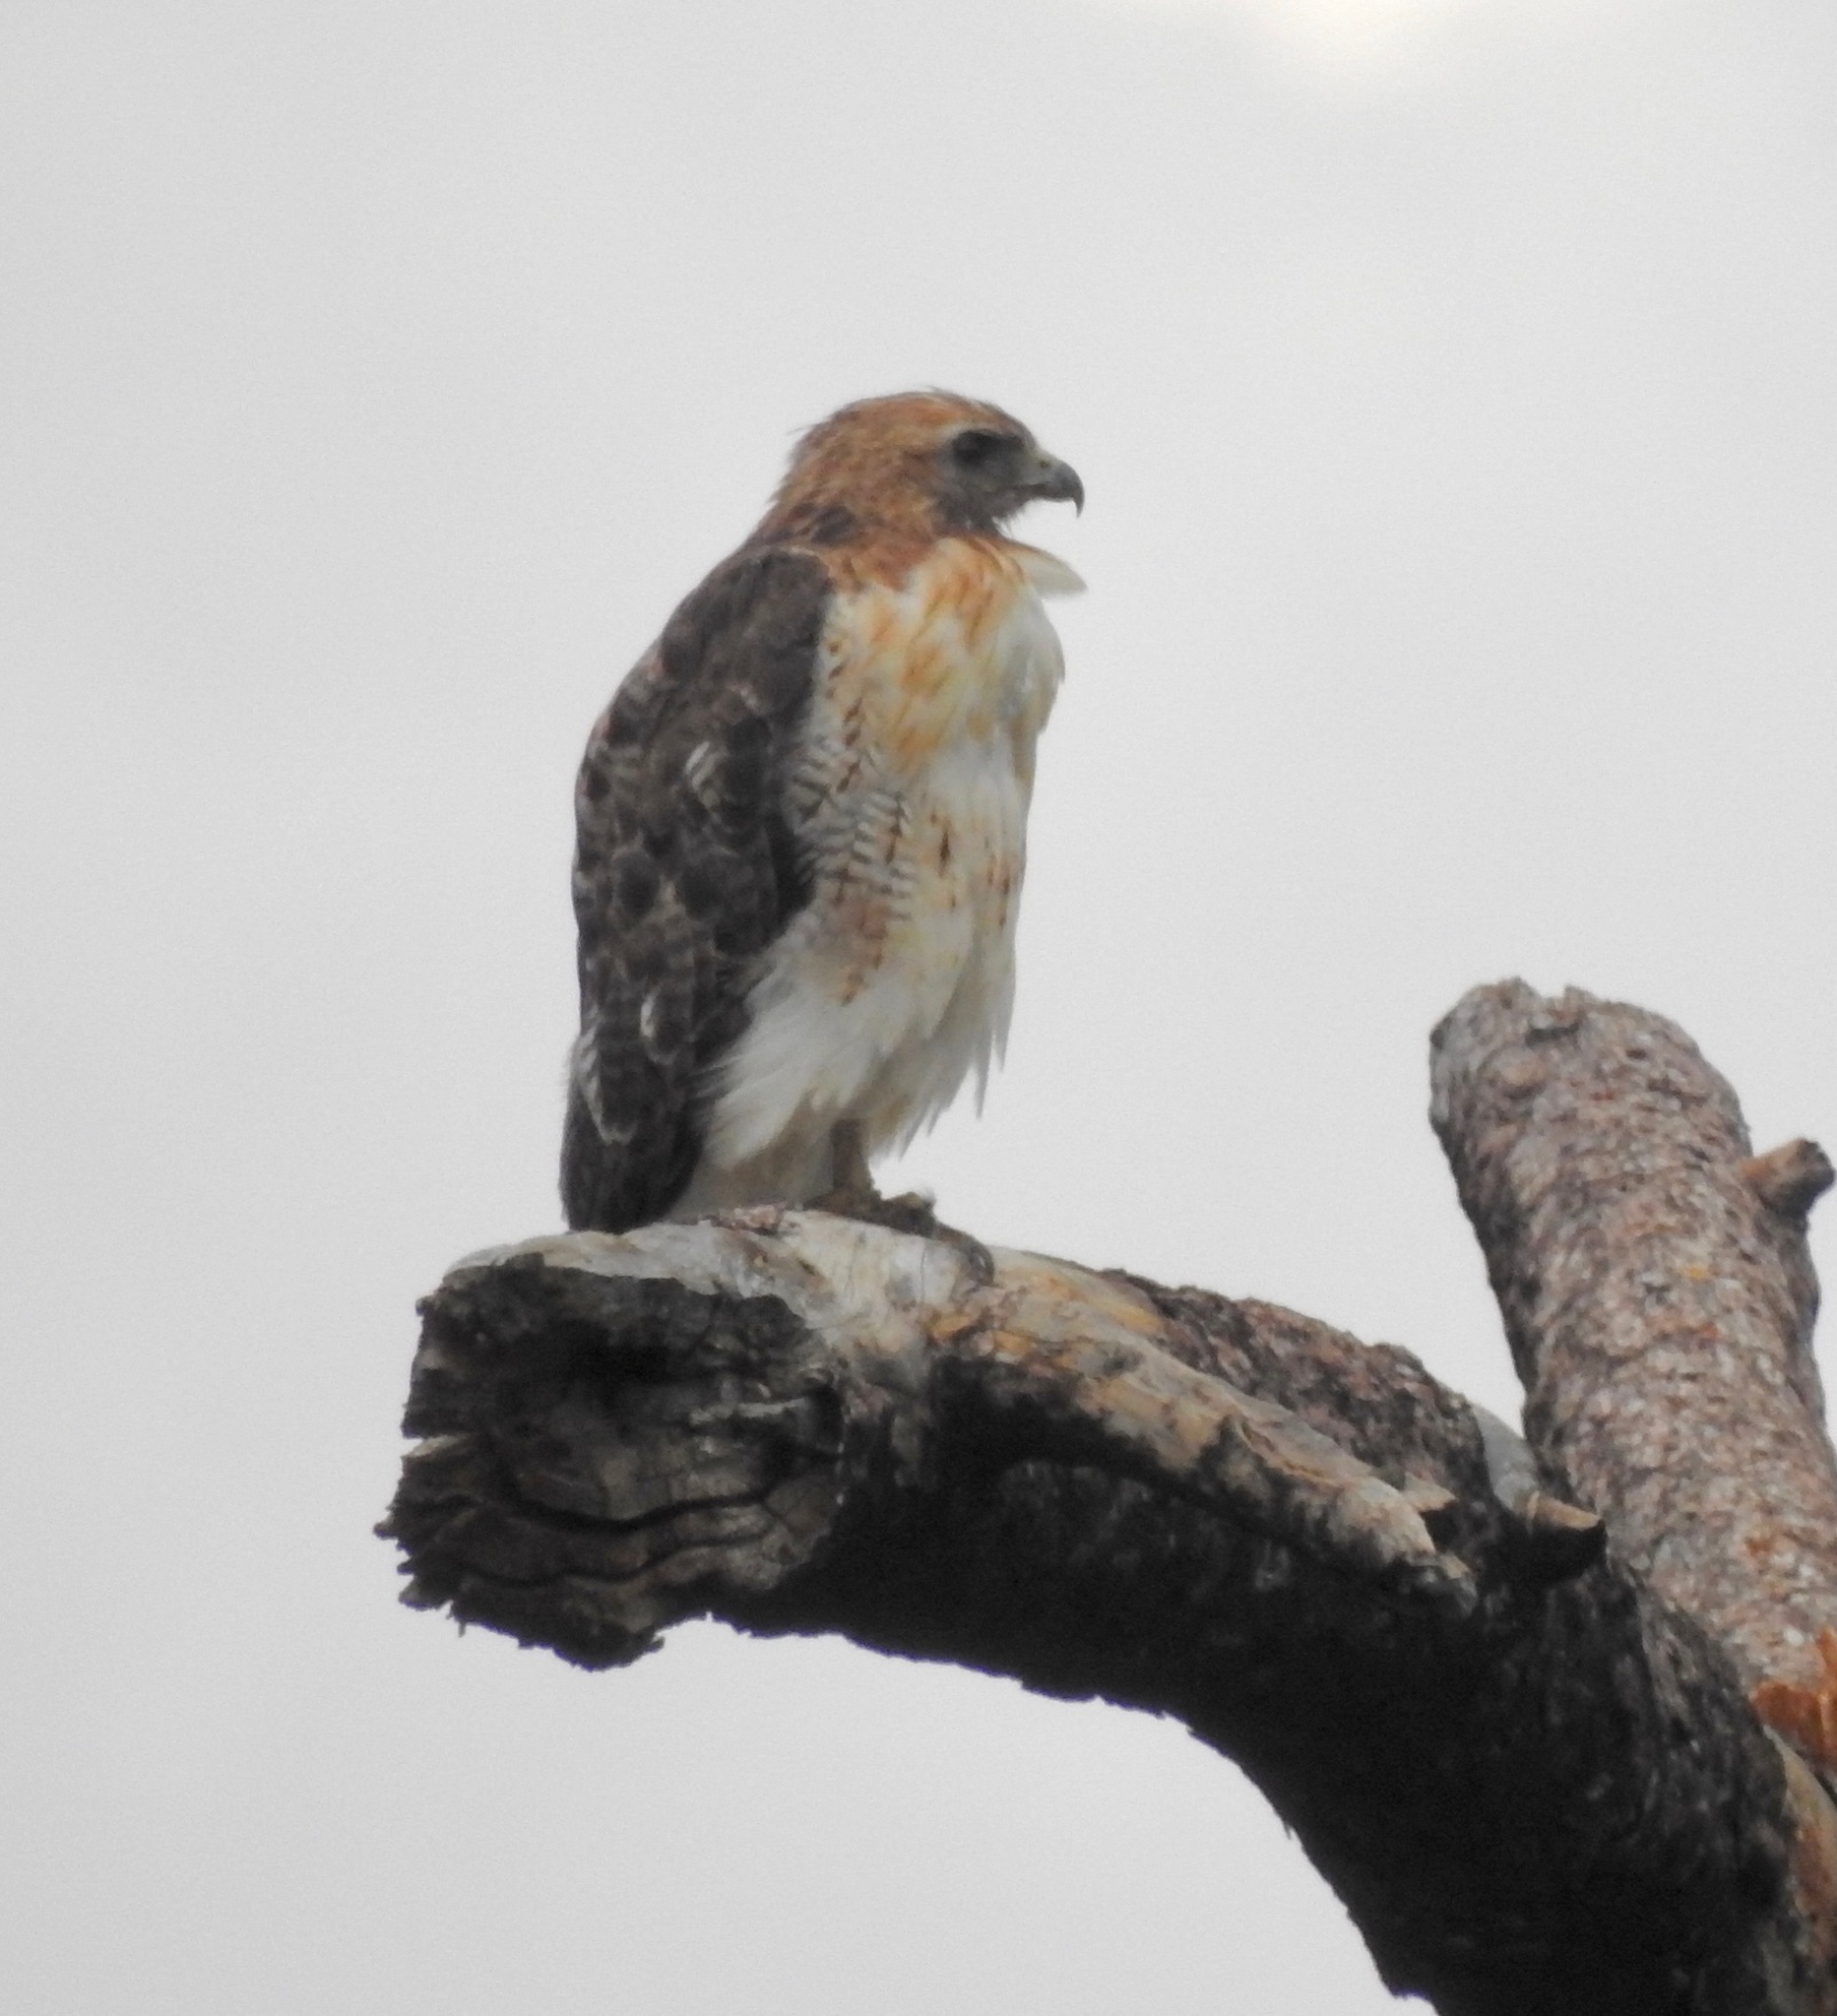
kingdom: Animalia
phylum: Chordata
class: Aves
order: Accipitriformes
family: Accipitridae
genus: Buteo
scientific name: Buteo jamaicensis
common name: Red-tailed hawk
